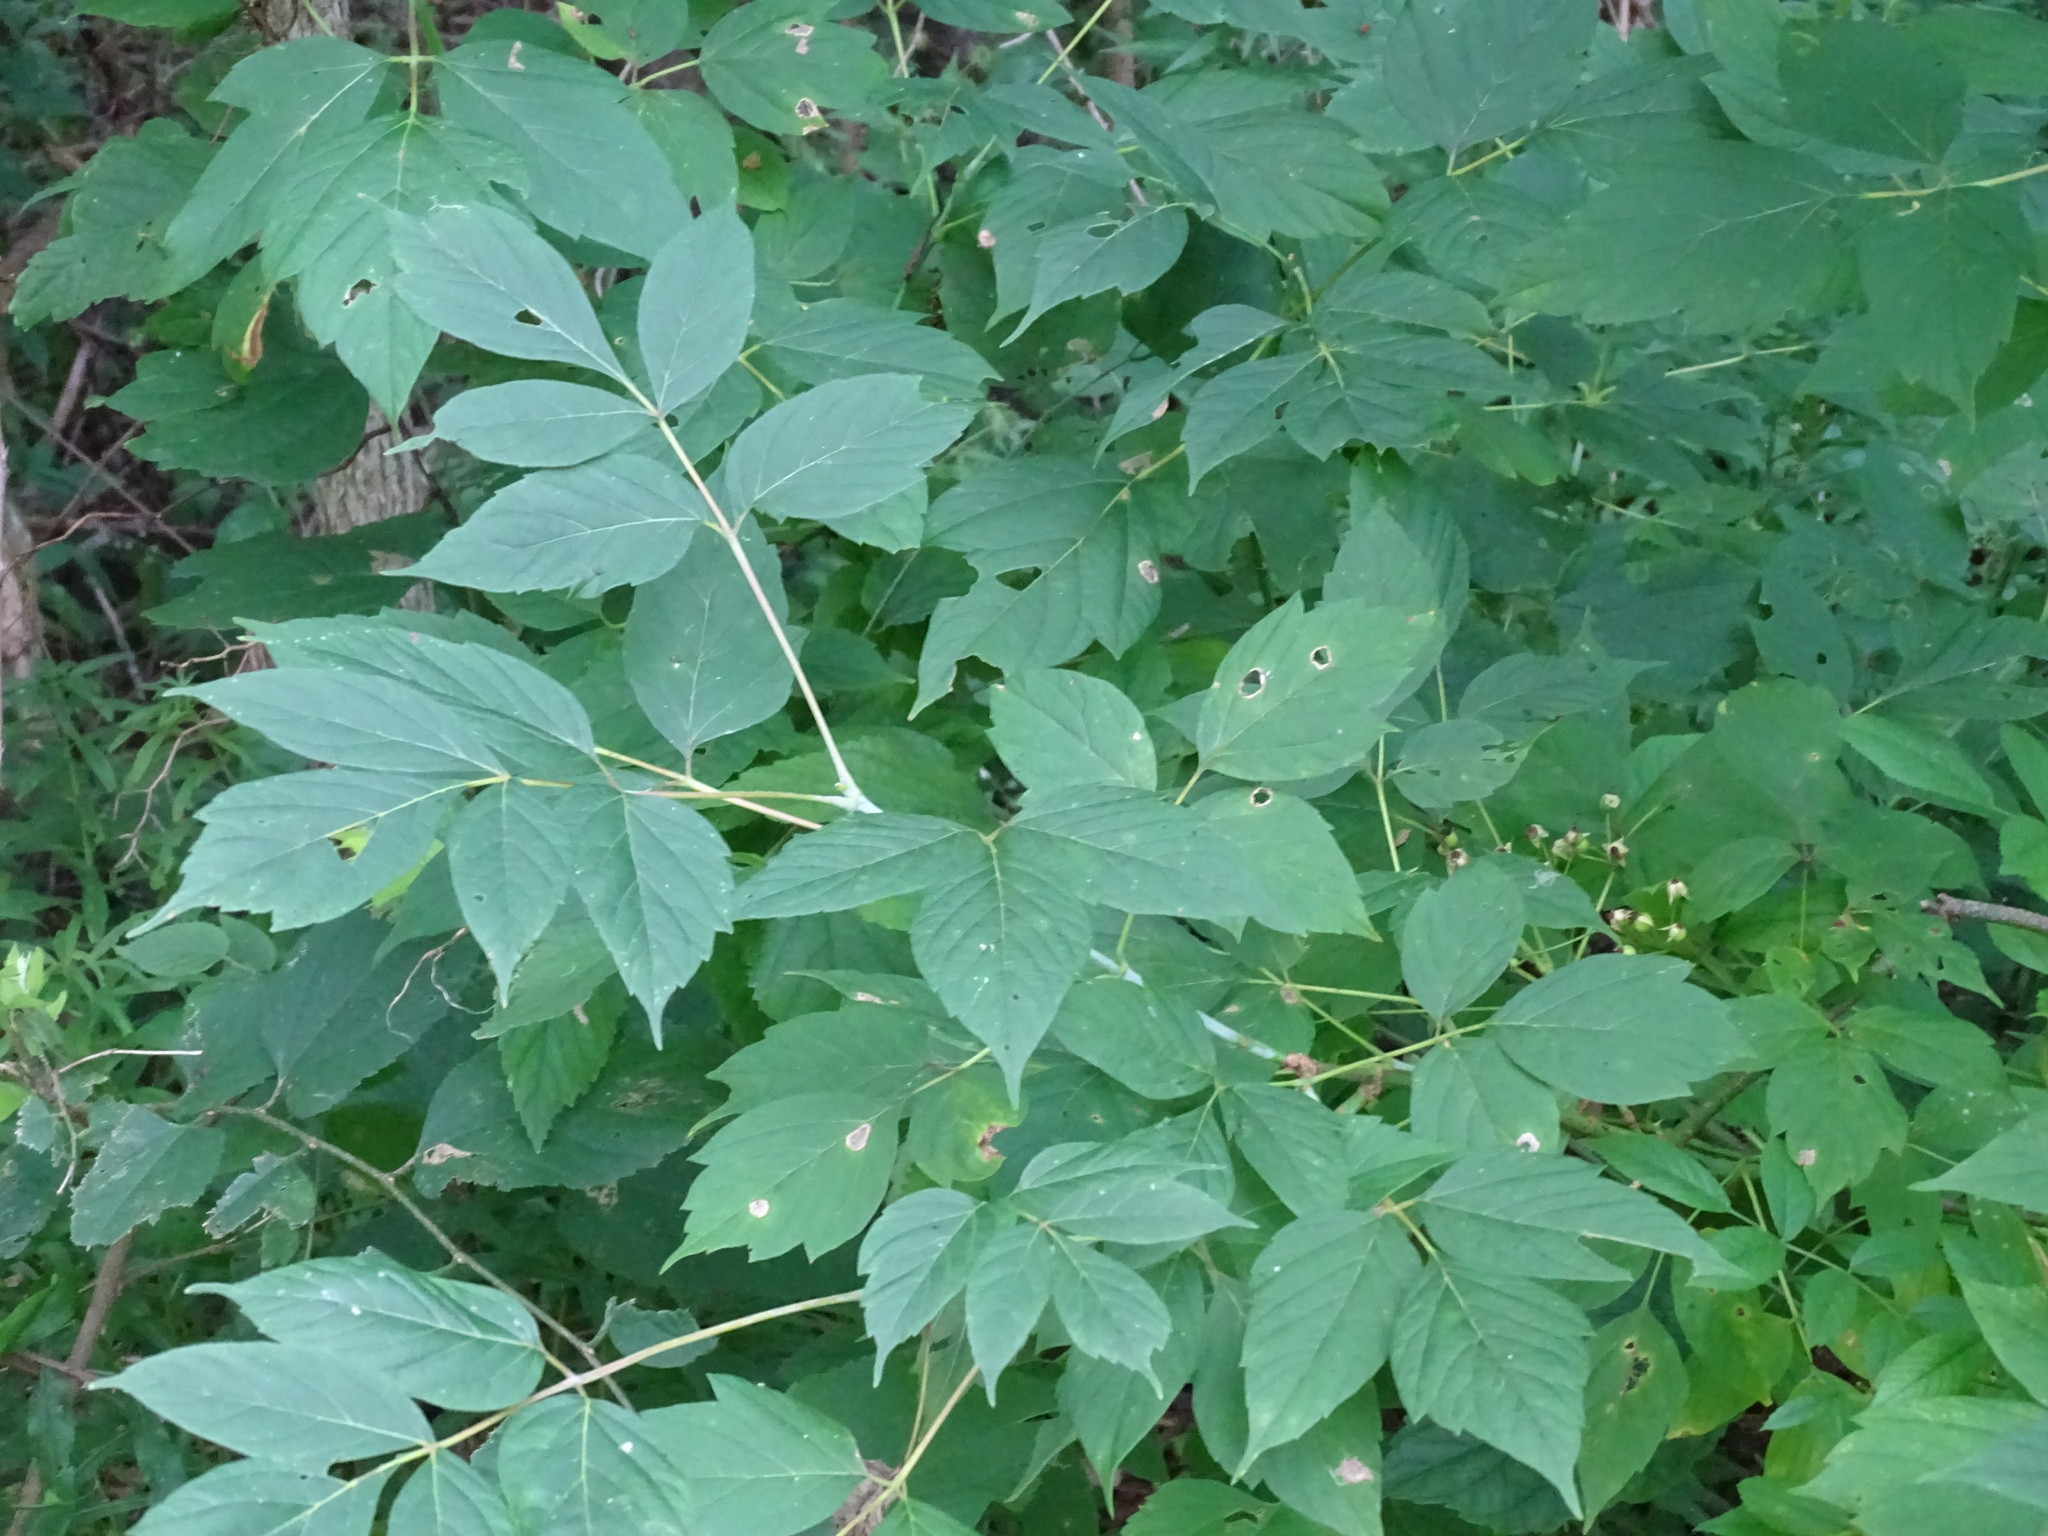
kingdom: Plantae
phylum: Tracheophyta
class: Magnoliopsida
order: Sapindales
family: Sapindaceae
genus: Acer
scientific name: Acer negundo
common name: Ashleaf maple
